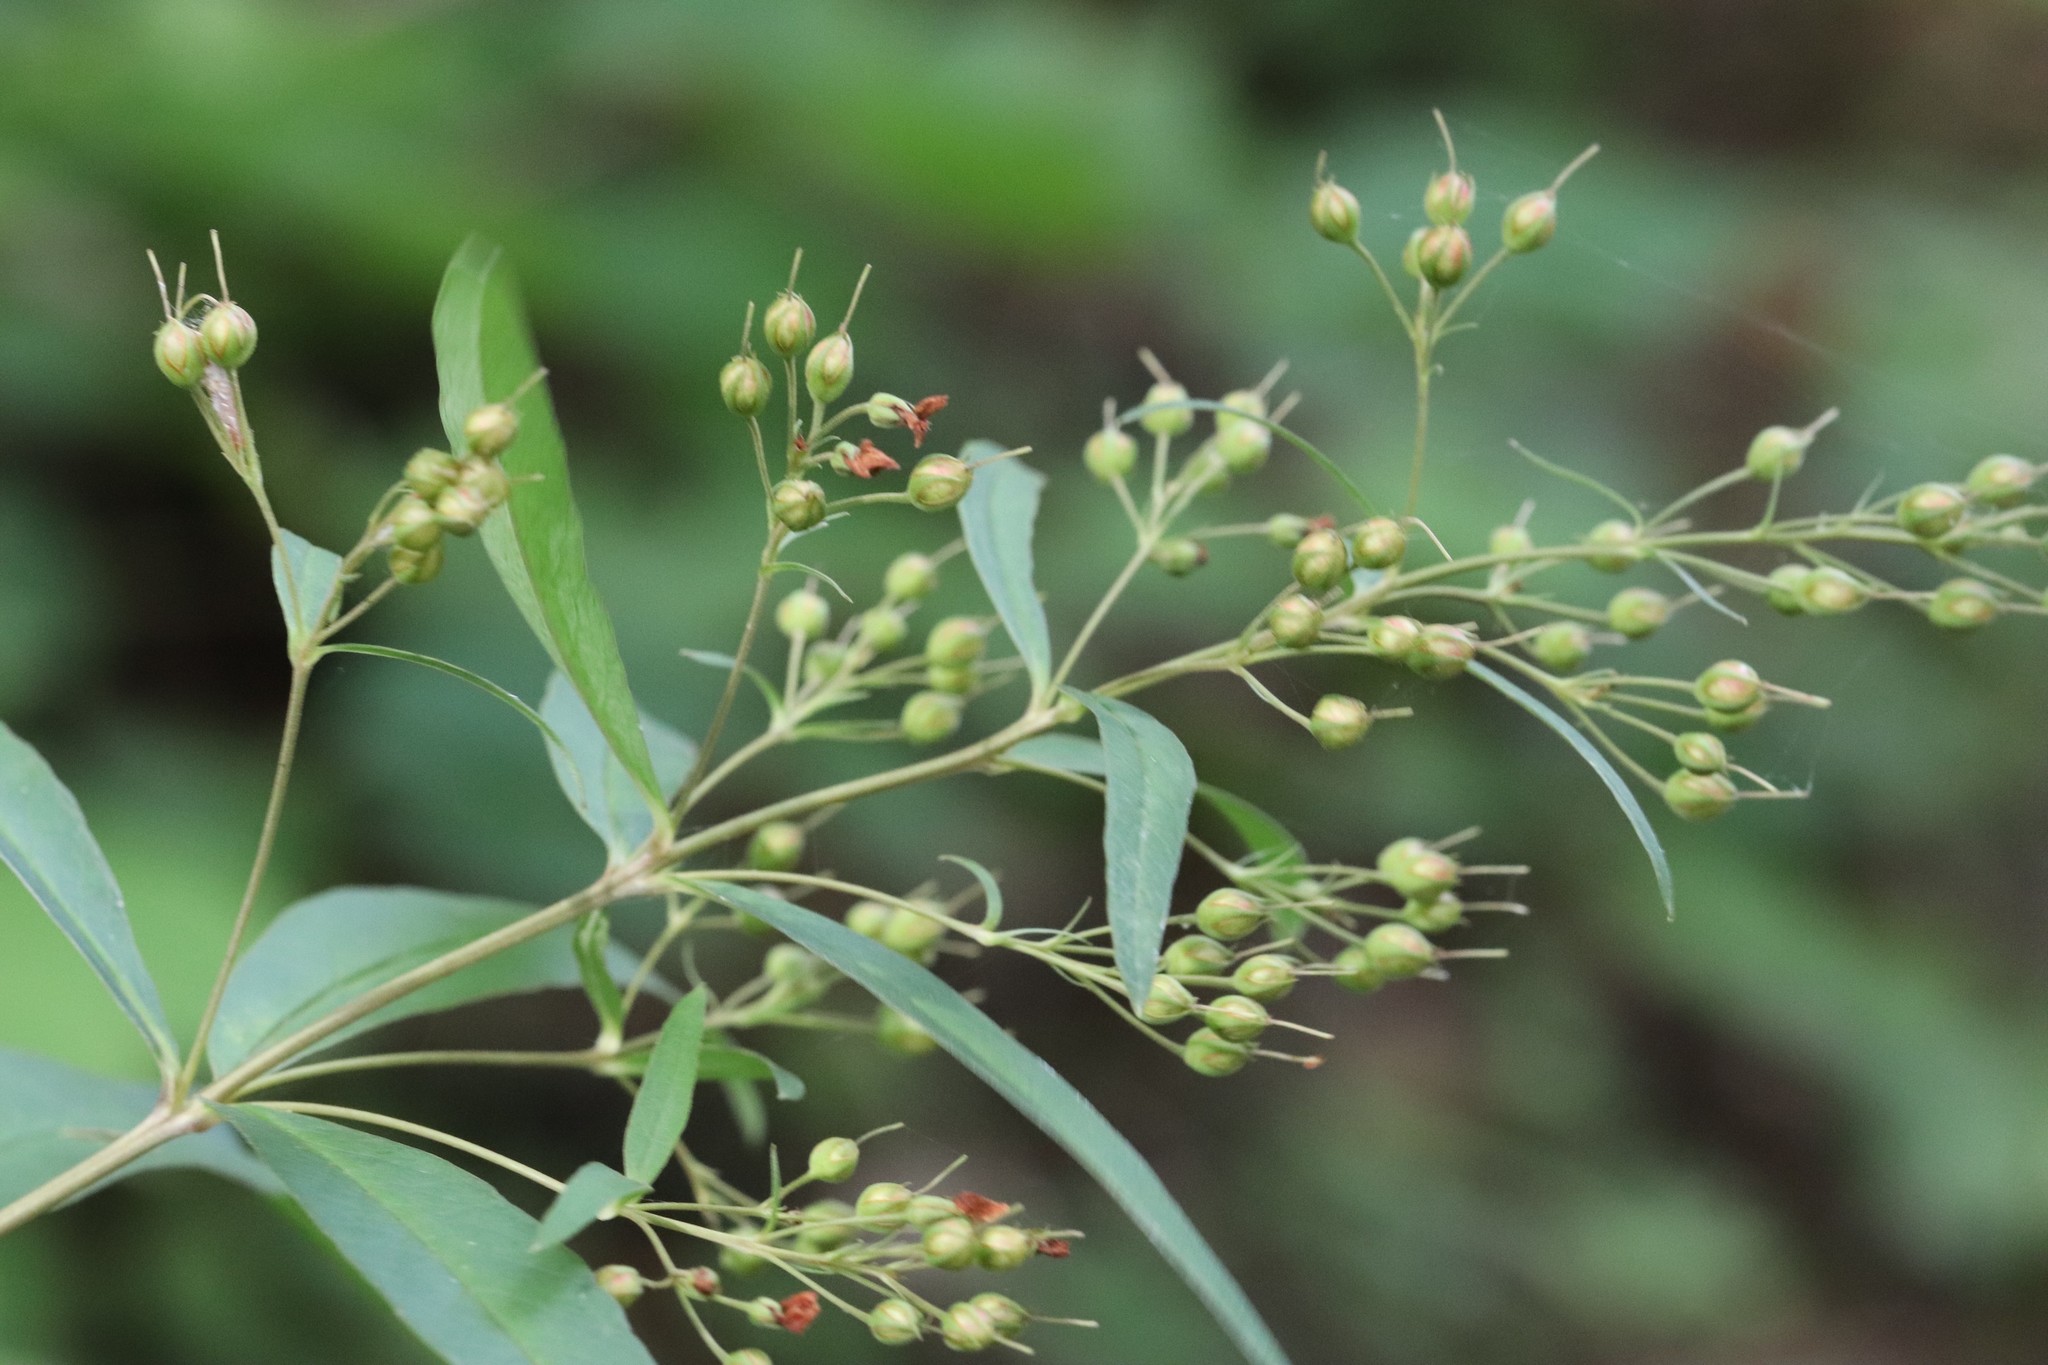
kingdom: Plantae
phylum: Tracheophyta
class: Magnoliopsida
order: Ericales
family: Primulaceae
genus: Lysimachia
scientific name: Lysimachia davurica
